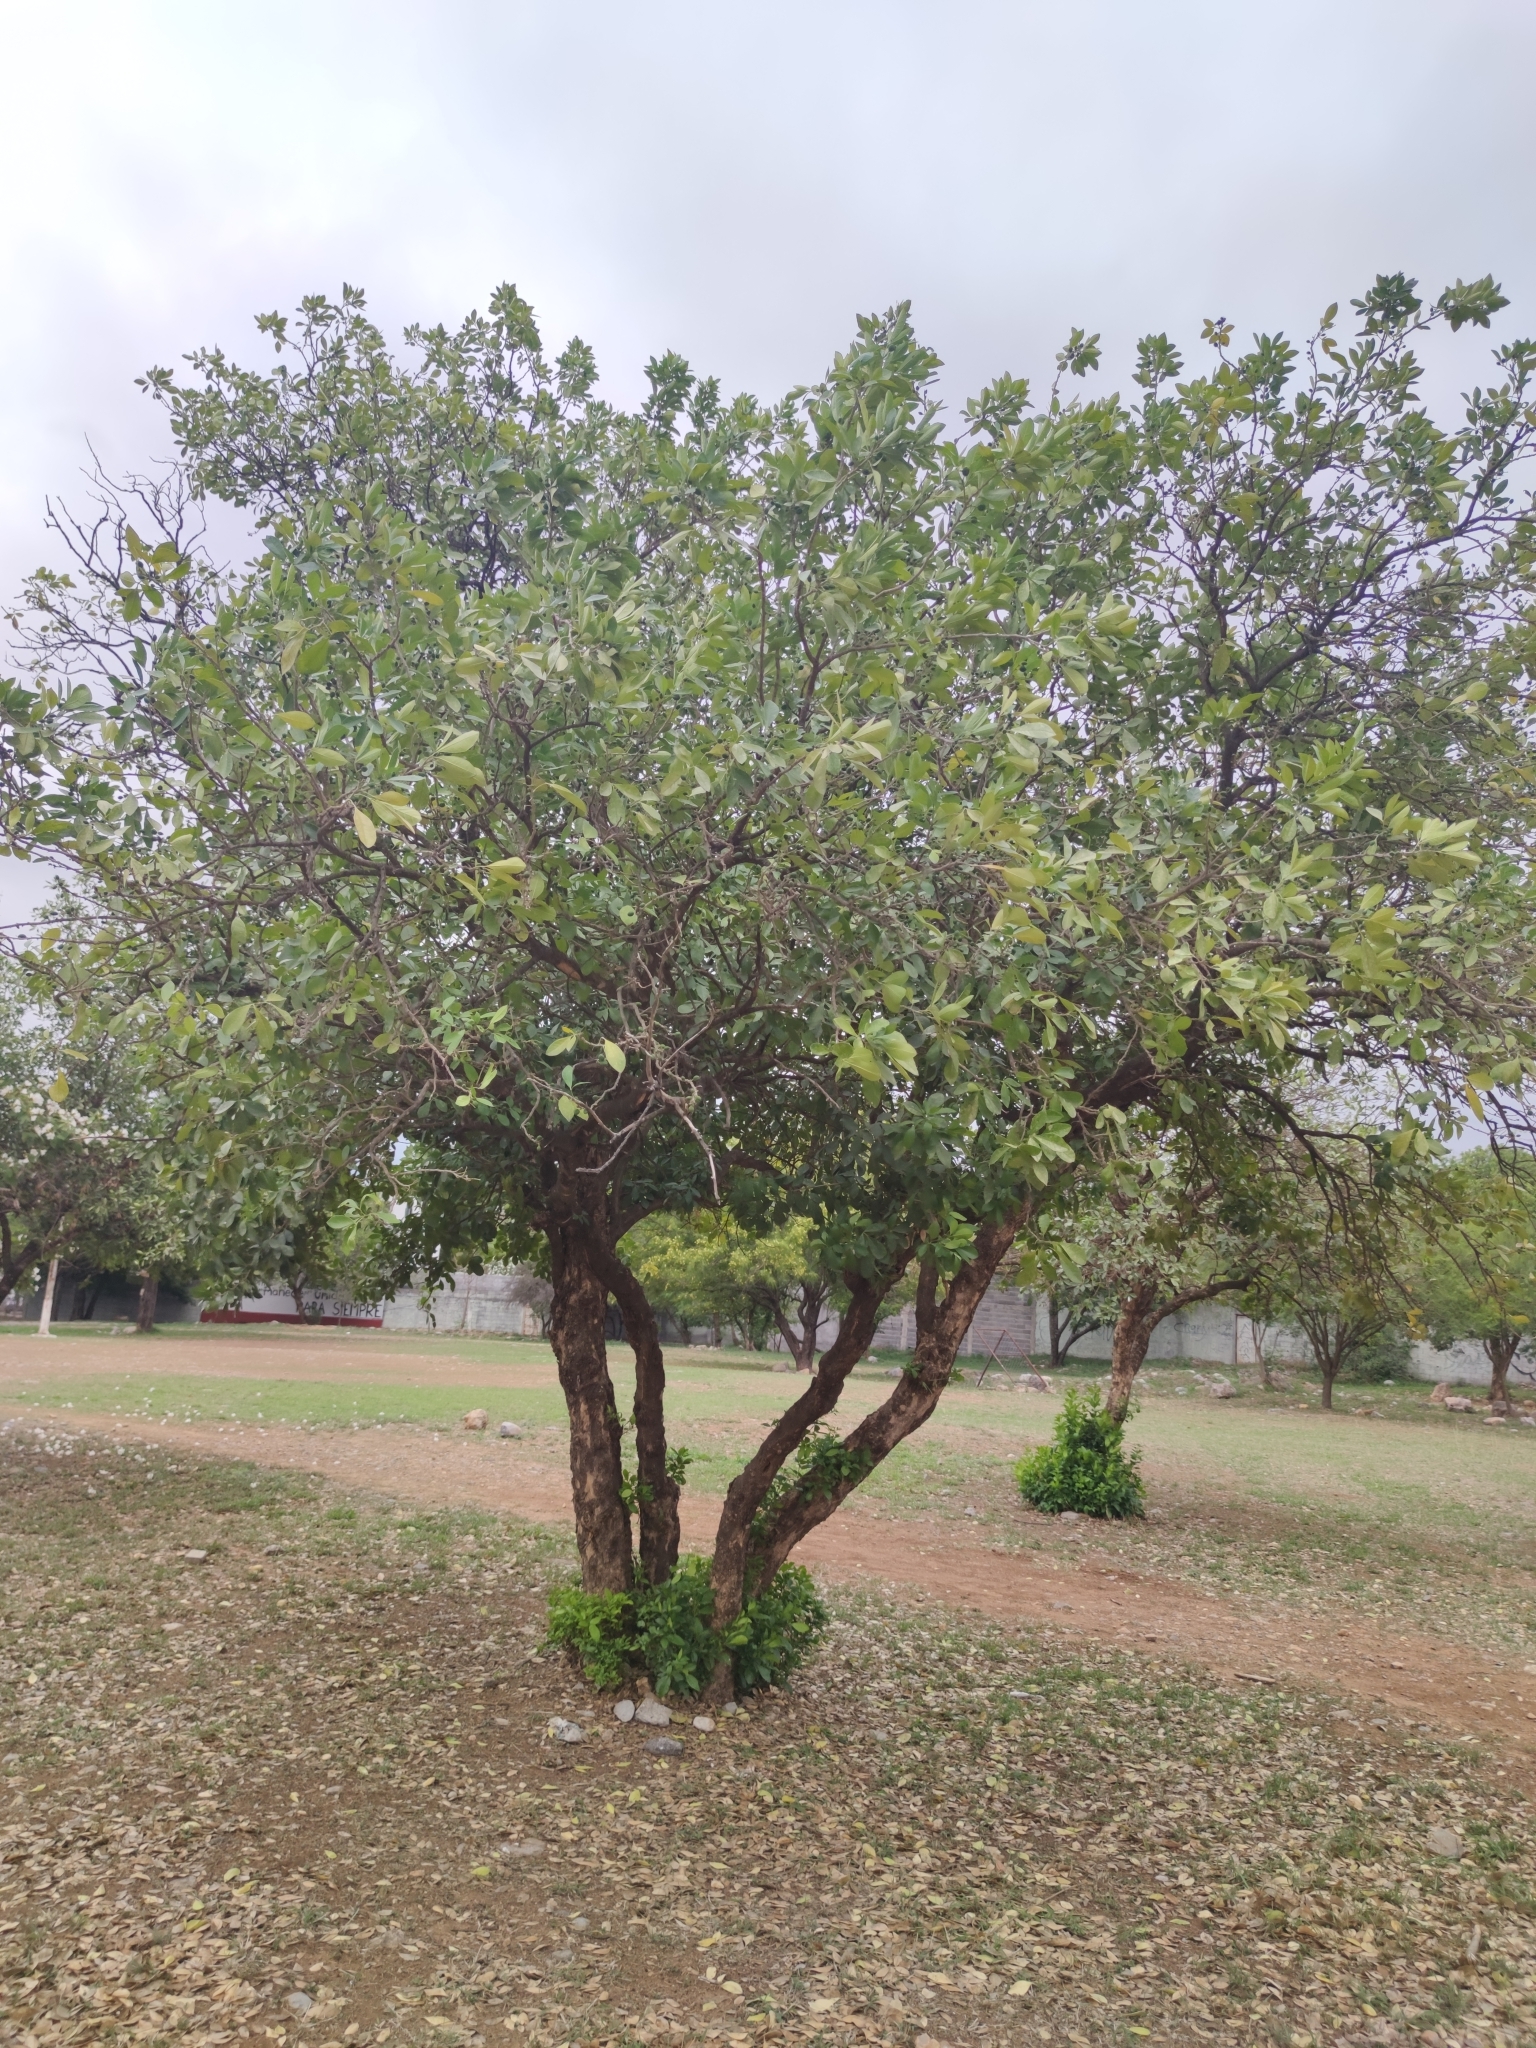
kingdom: Plantae
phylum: Tracheophyta
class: Magnoliopsida
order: Sapindales
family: Rutaceae
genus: Casimiroa
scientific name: Casimiroa greggii
